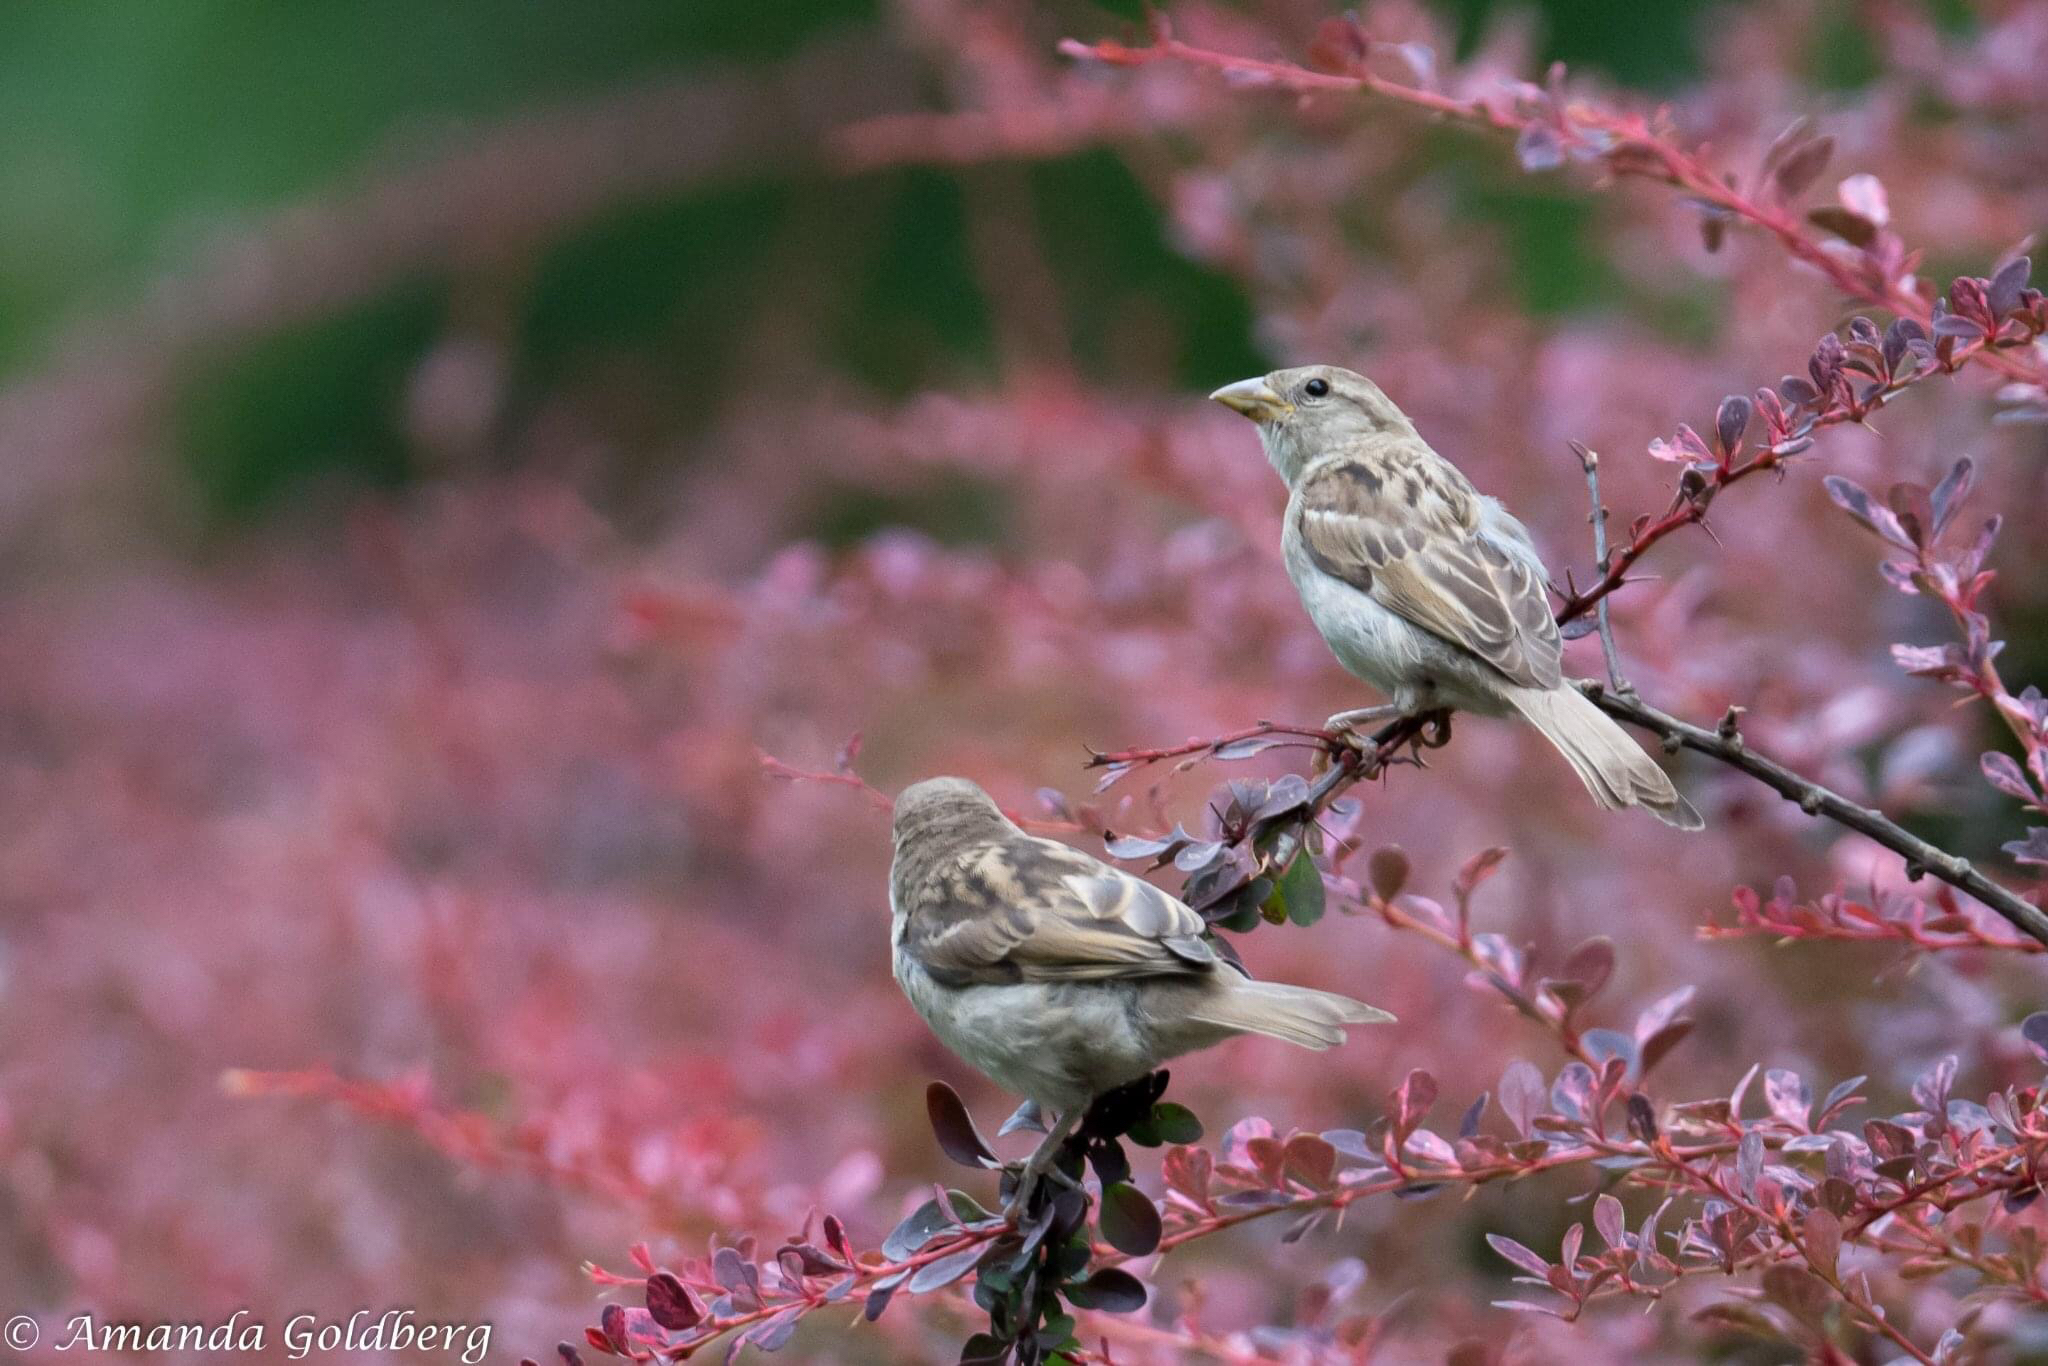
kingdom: Animalia
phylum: Chordata
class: Aves
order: Passeriformes
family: Passeridae
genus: Passer
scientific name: Passer domesticus
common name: House sparrow
